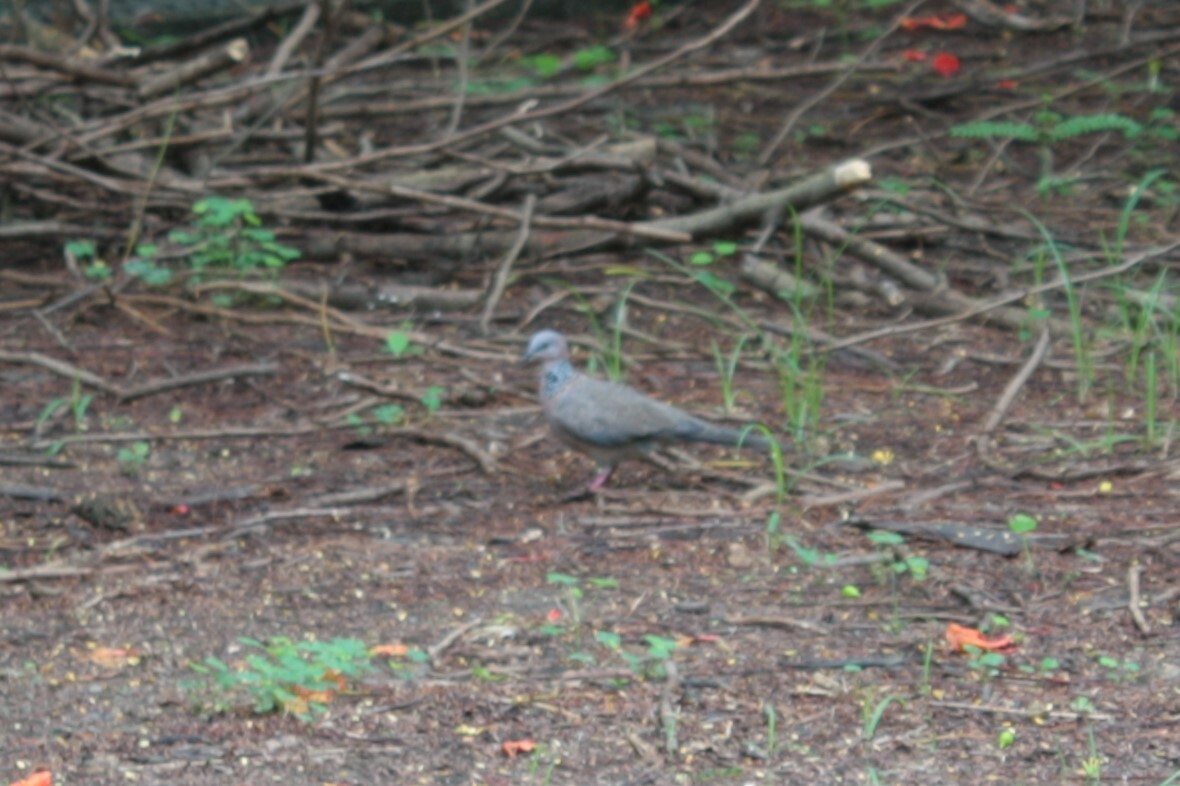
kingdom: Animalia
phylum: Chordata
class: Aves
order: Columbiformes
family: Columbidae
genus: Spilopelia
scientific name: Spilopelia chinensis
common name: Spotted dove
